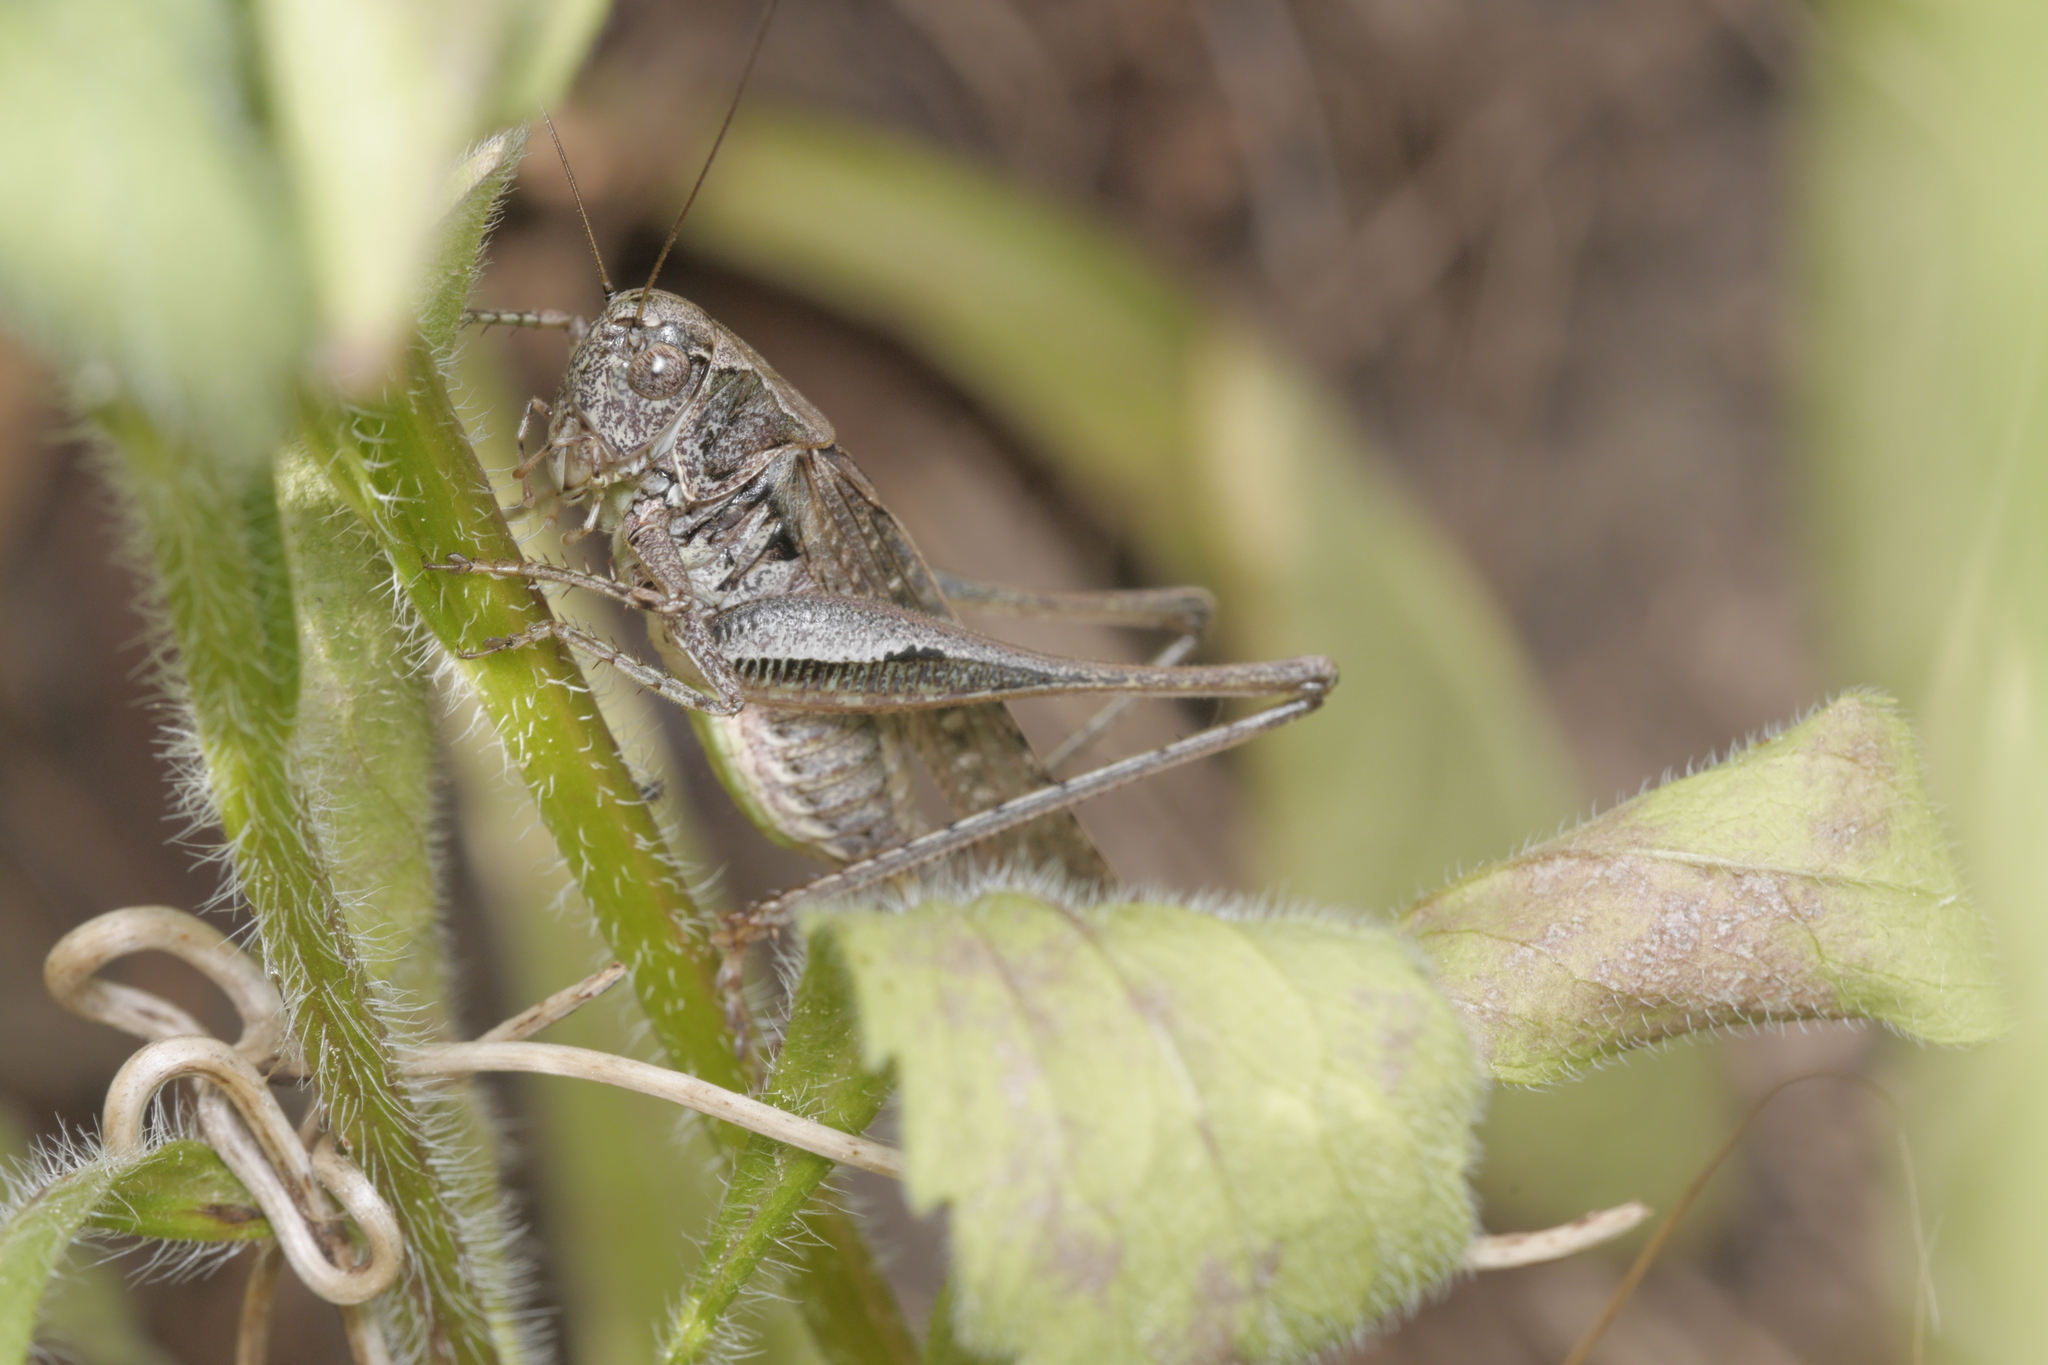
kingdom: Animalia
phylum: Arthropoda
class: Insecta
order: Orthoptera
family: Tettigoniidae
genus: Platycleis
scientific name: Platycleis albopunctata
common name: Grey bush-cricket
